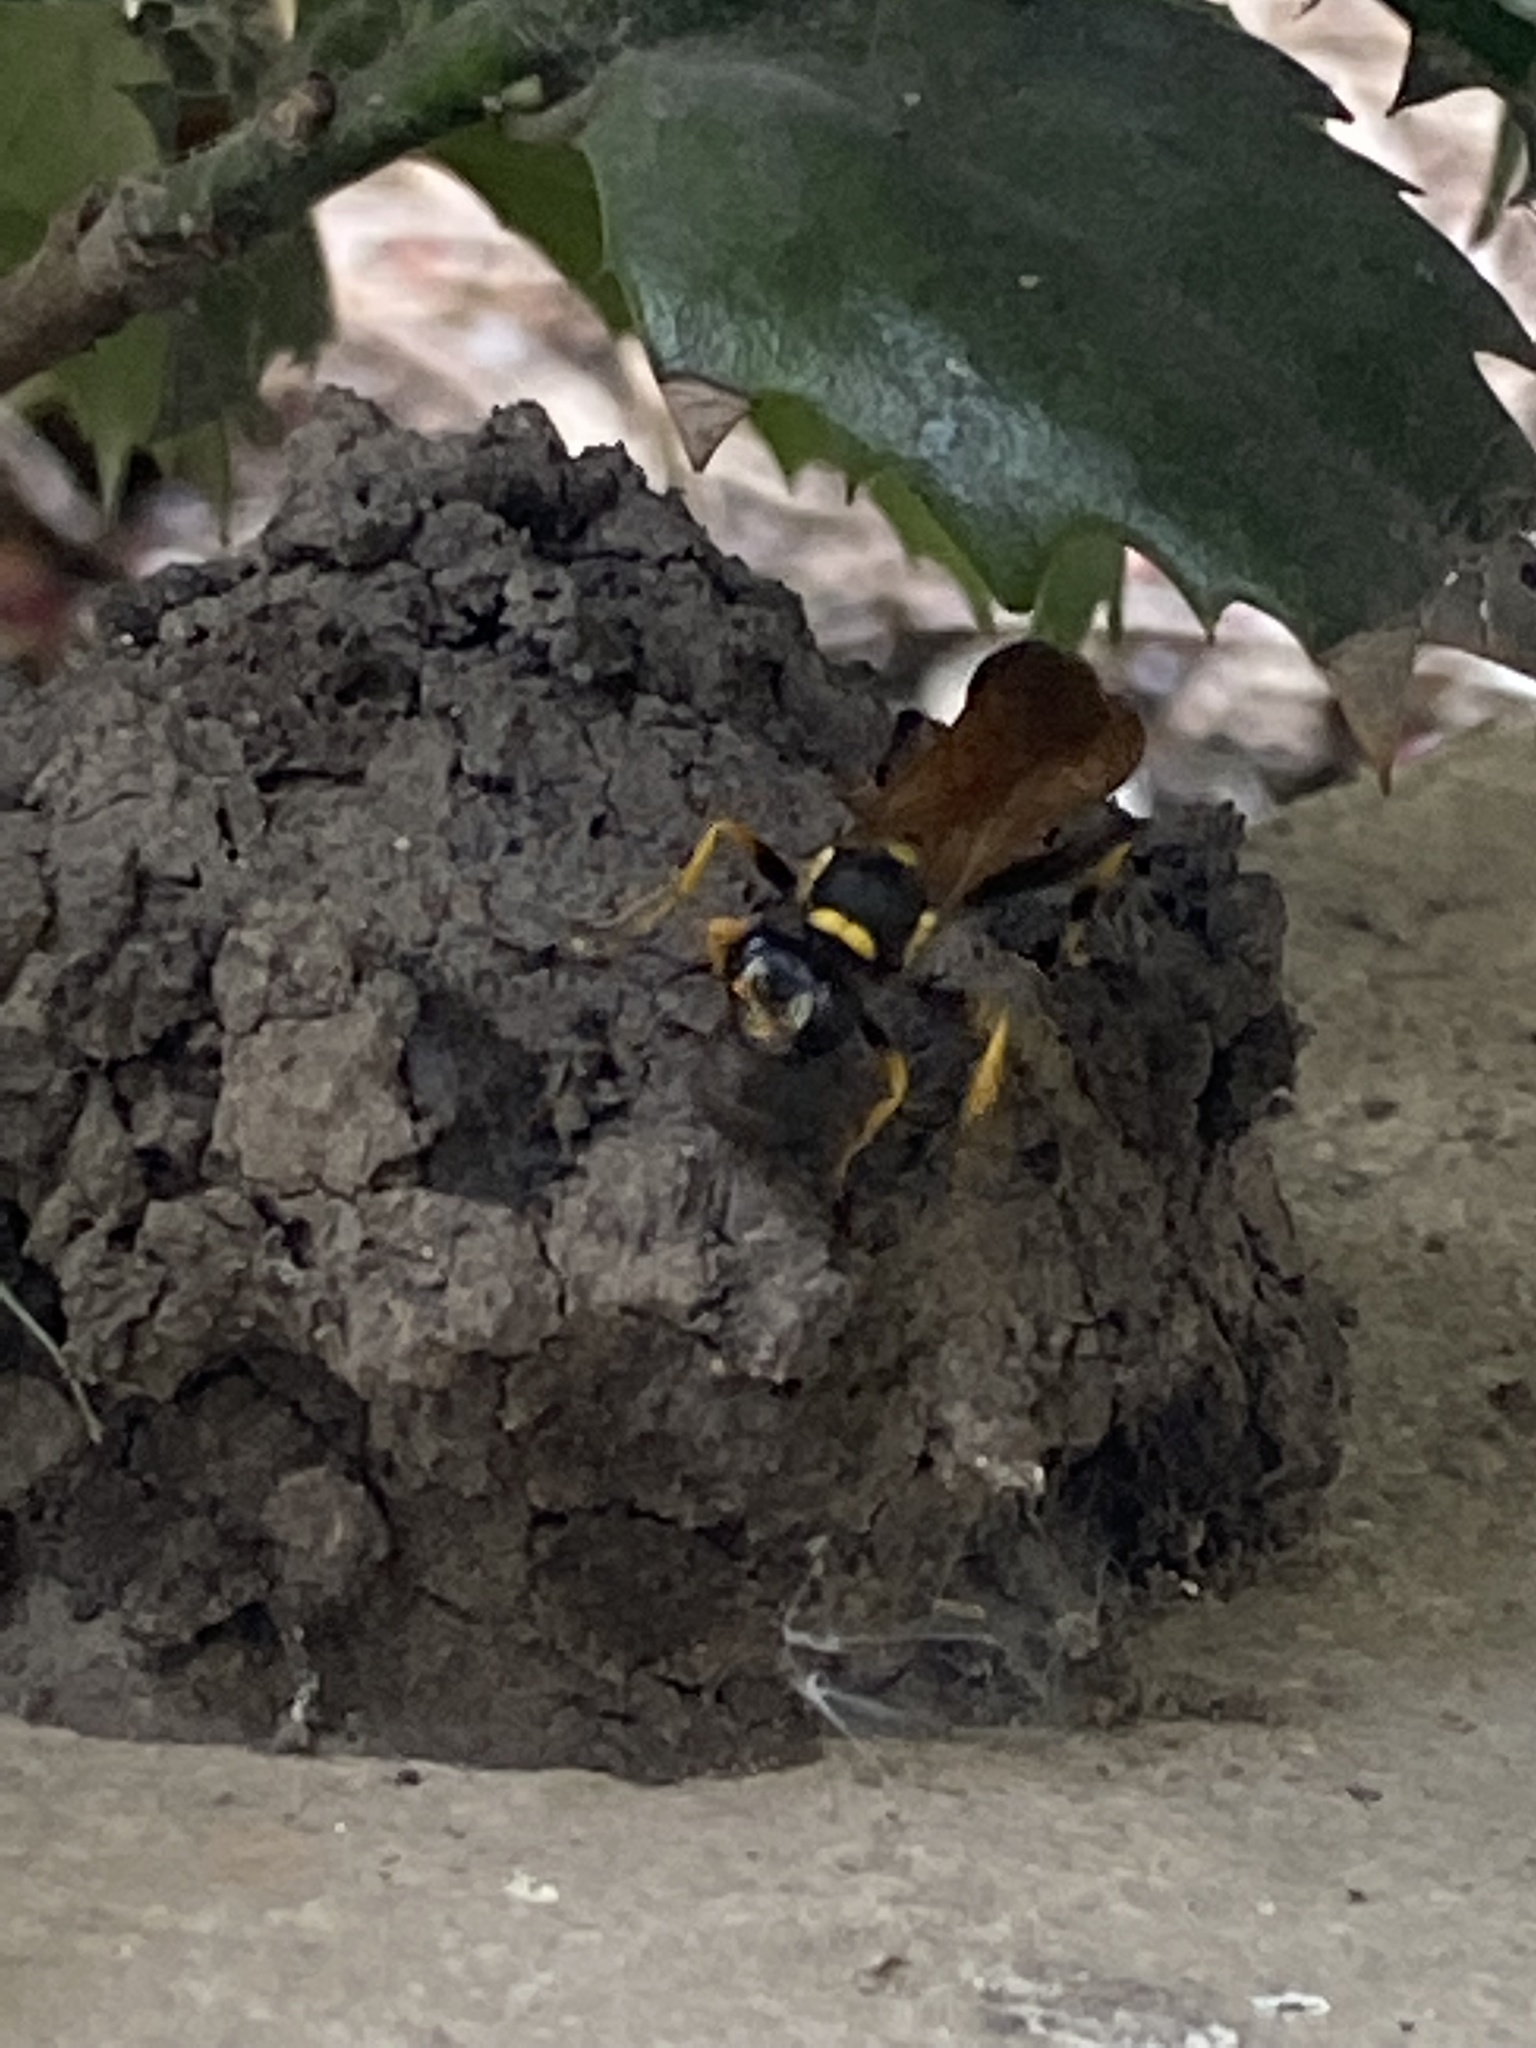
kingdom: Animalia
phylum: Arthropoda
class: Insecta
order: Hymenoptera
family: Sphecidae
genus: Sceliphron
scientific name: Sceliphron caementarium
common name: Mud dauber
